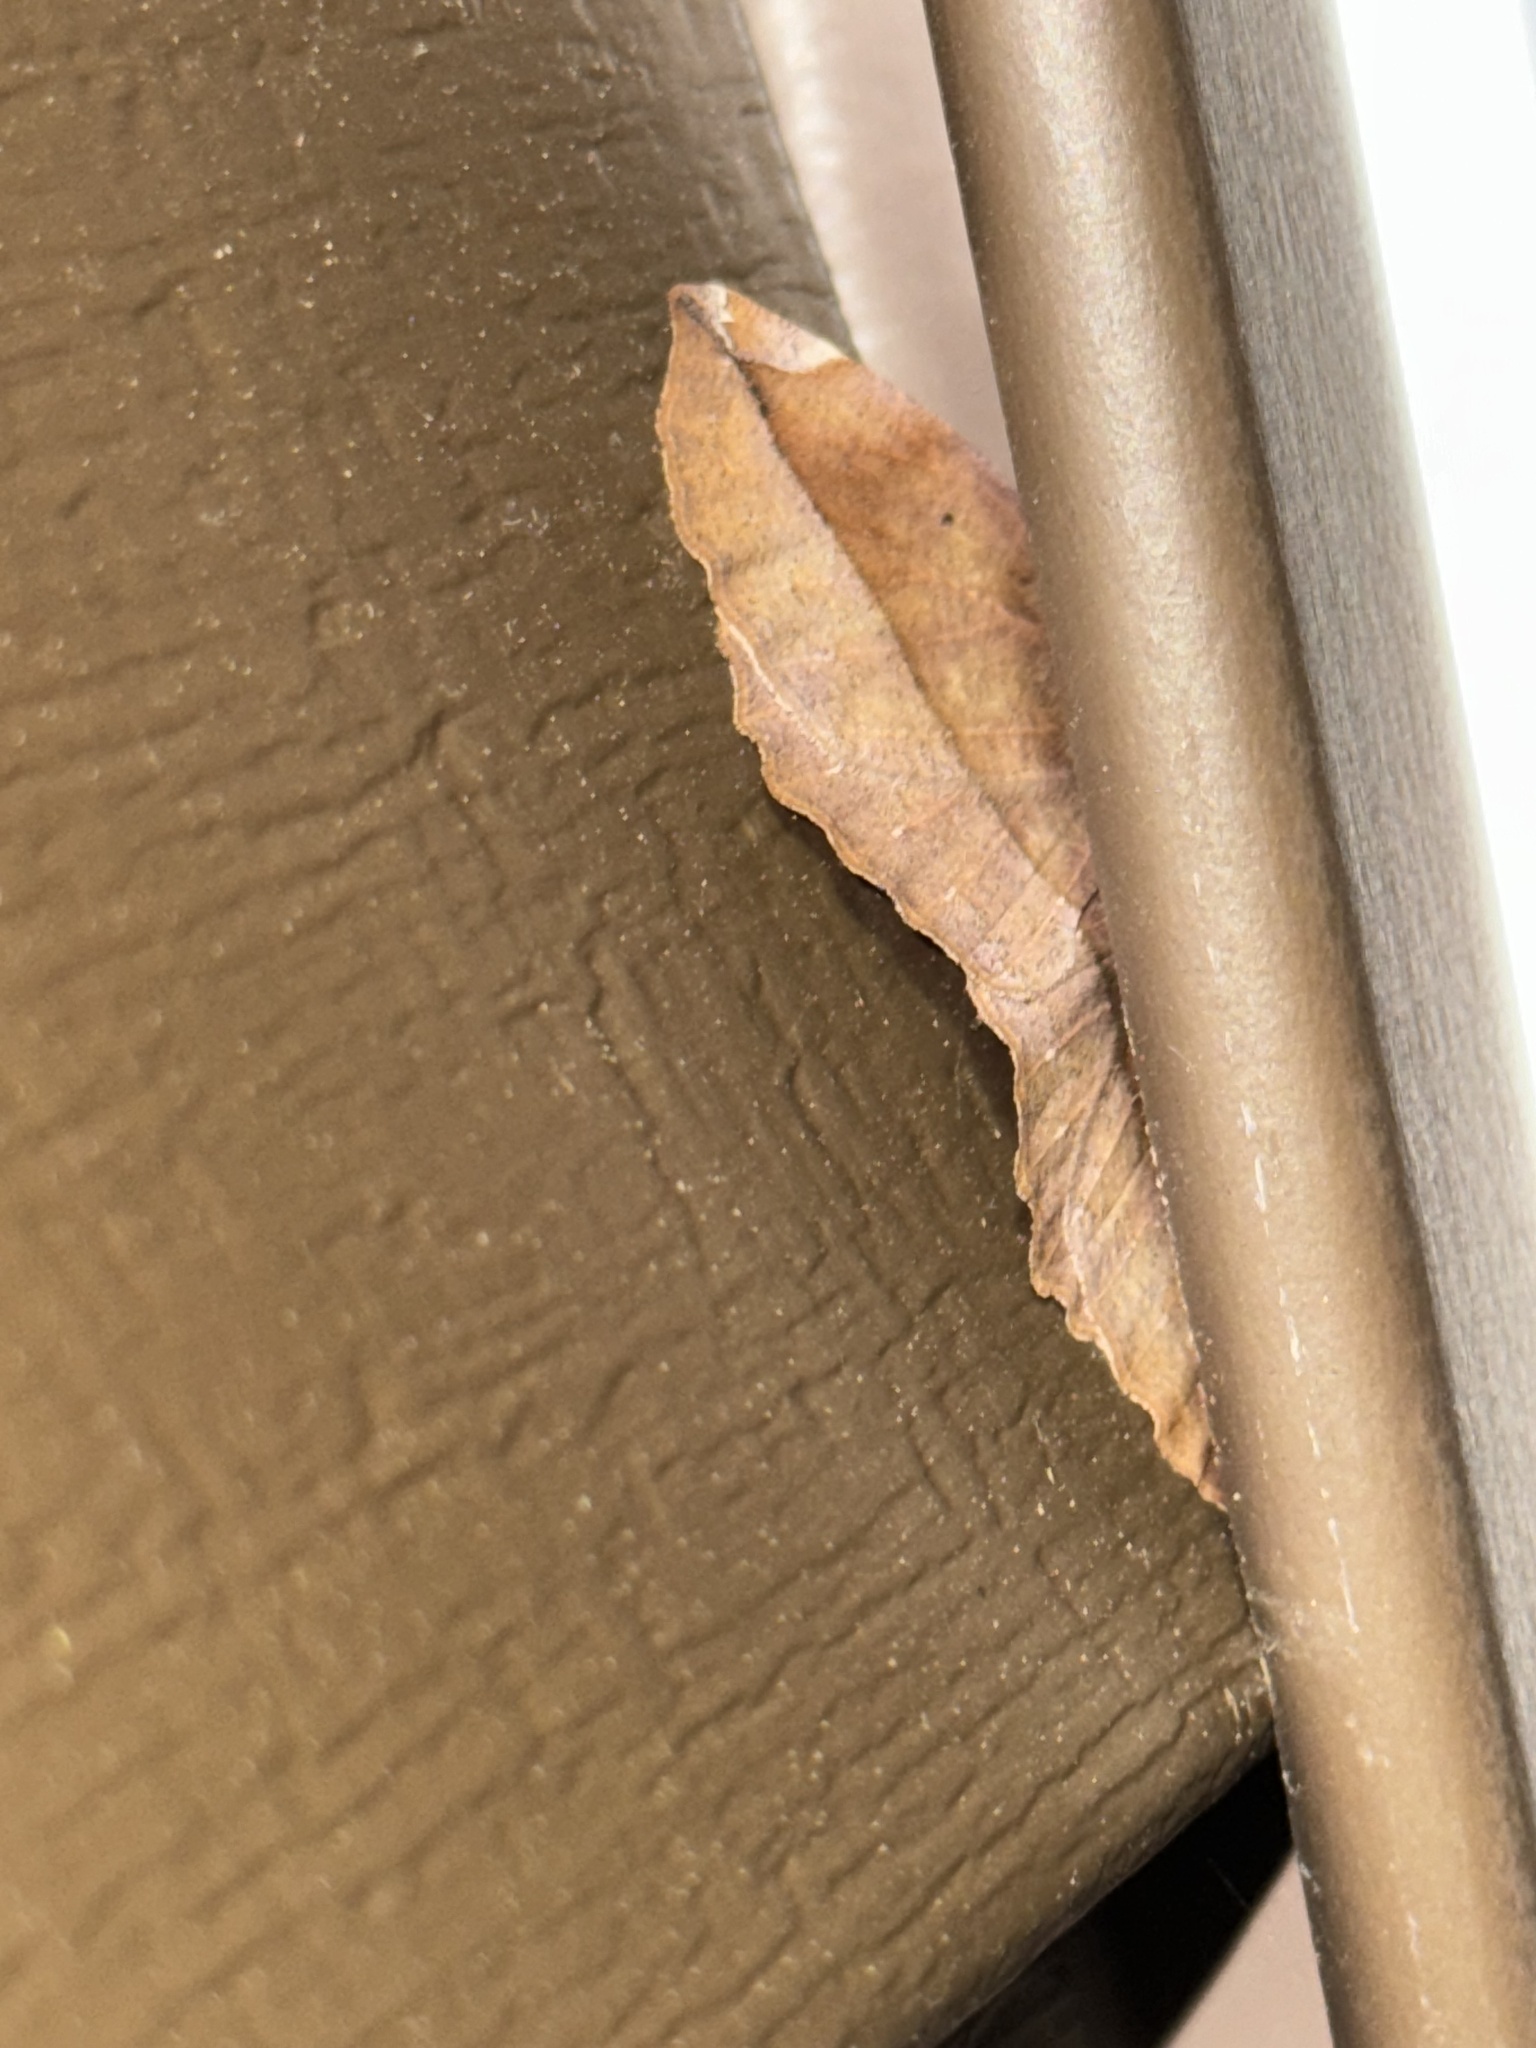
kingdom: Animalia
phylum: Arthropoda
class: Insecta
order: Lepidoptera
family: Geometridae
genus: Eutrapela
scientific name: Eutrapela clemataria
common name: Curved-toothed geometer
